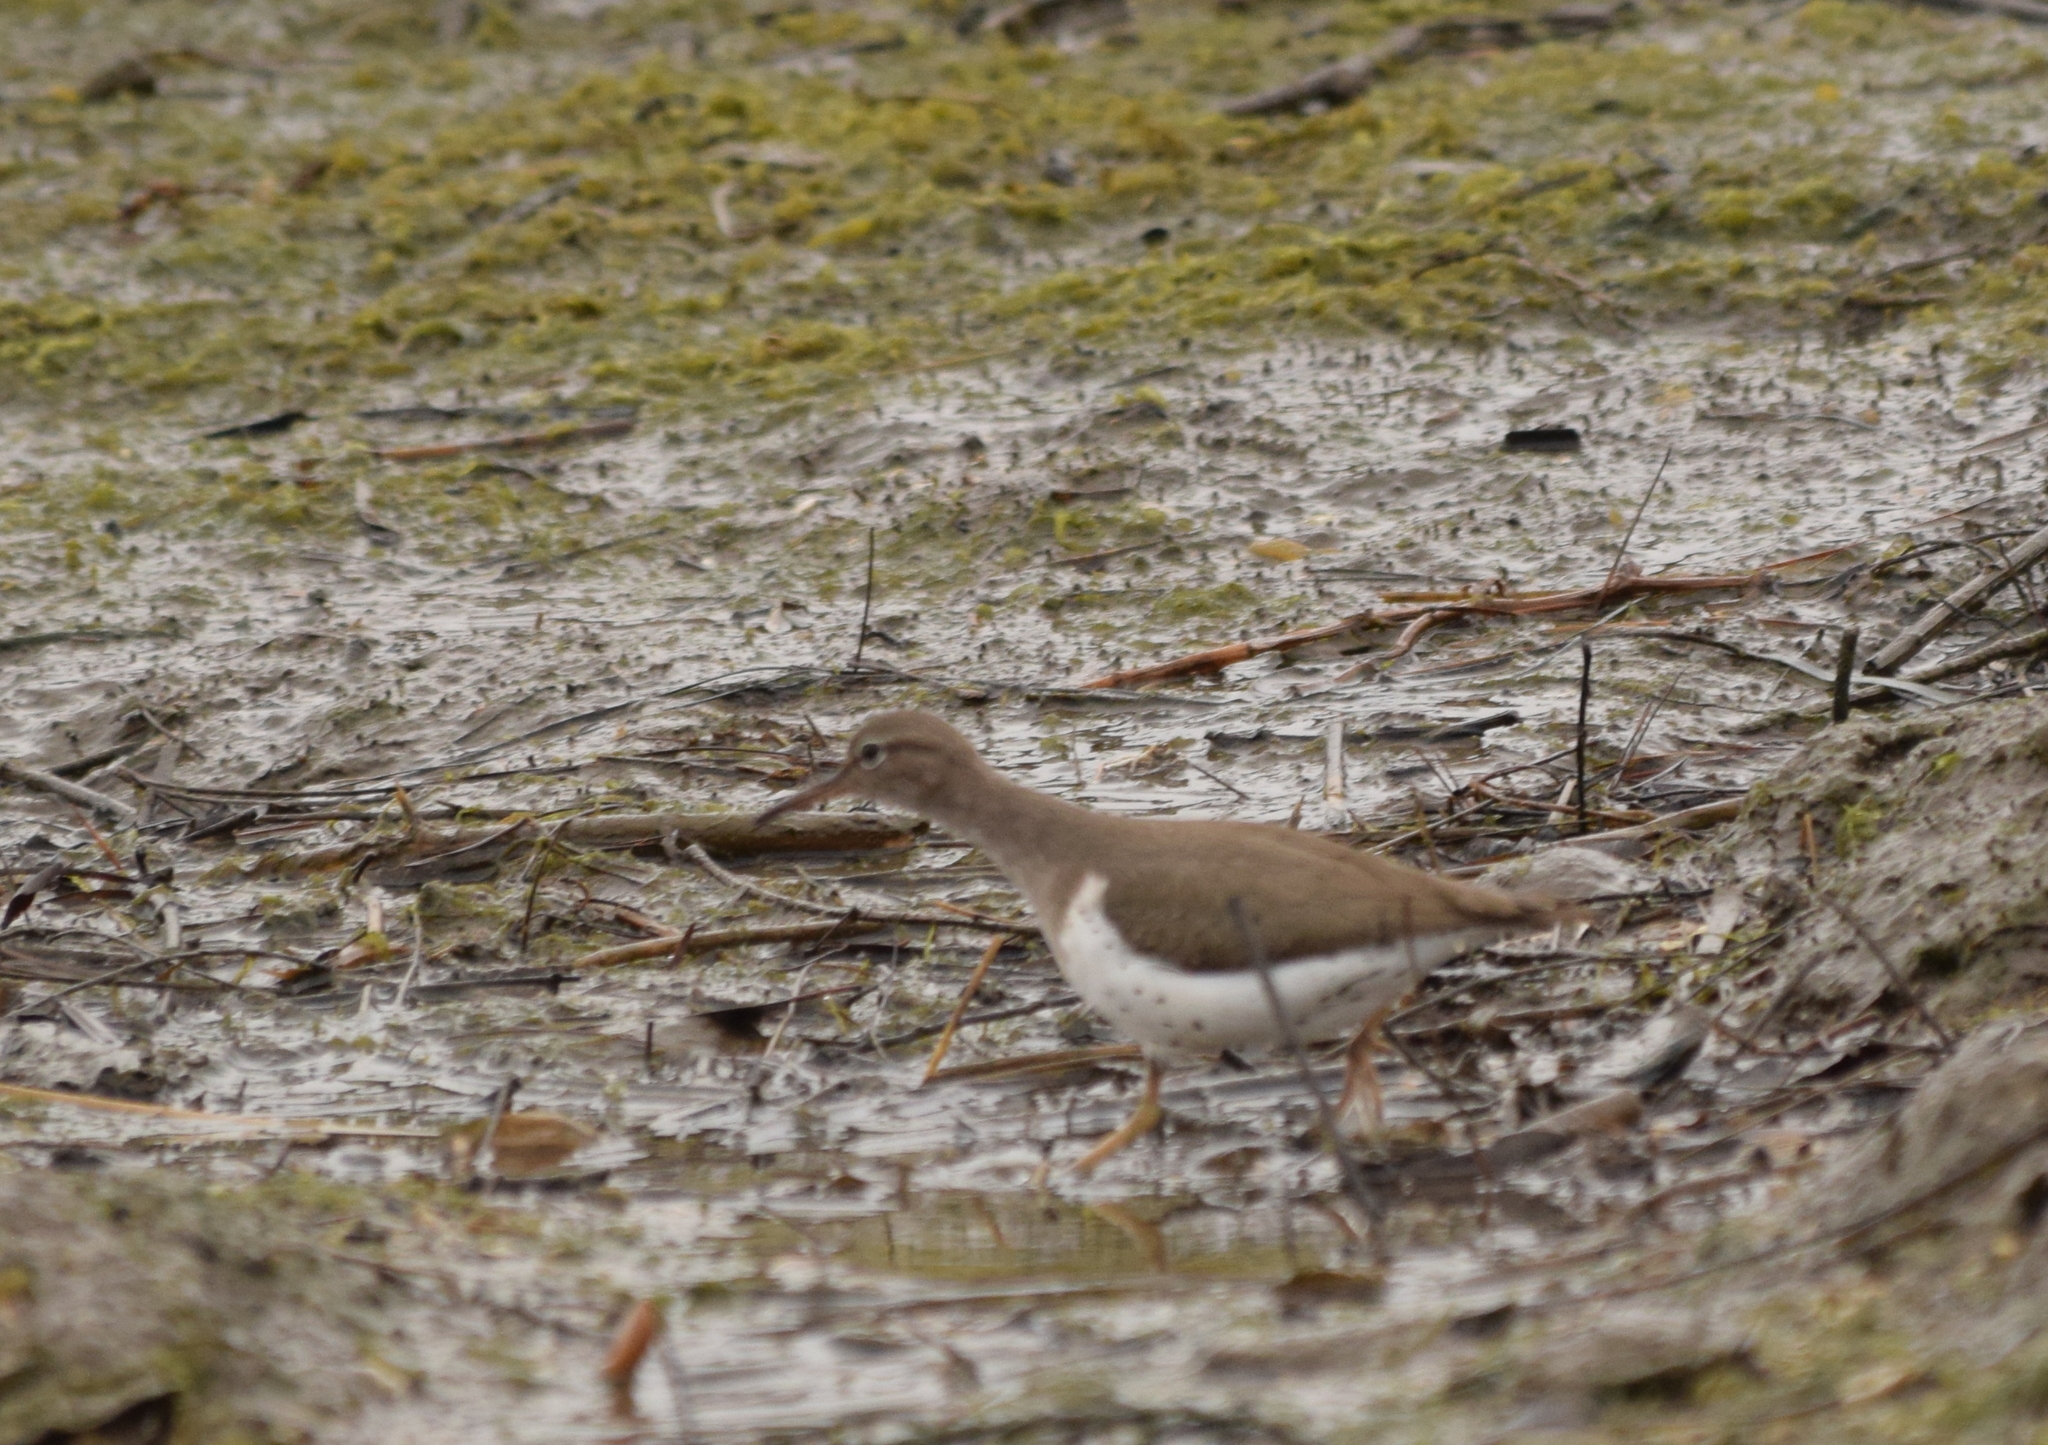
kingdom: Animalia
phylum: Chordata
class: Aves
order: Charadriiformes
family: Scolopacidae
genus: Actitis
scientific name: Actitis macularius
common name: Spotted sandpiper
